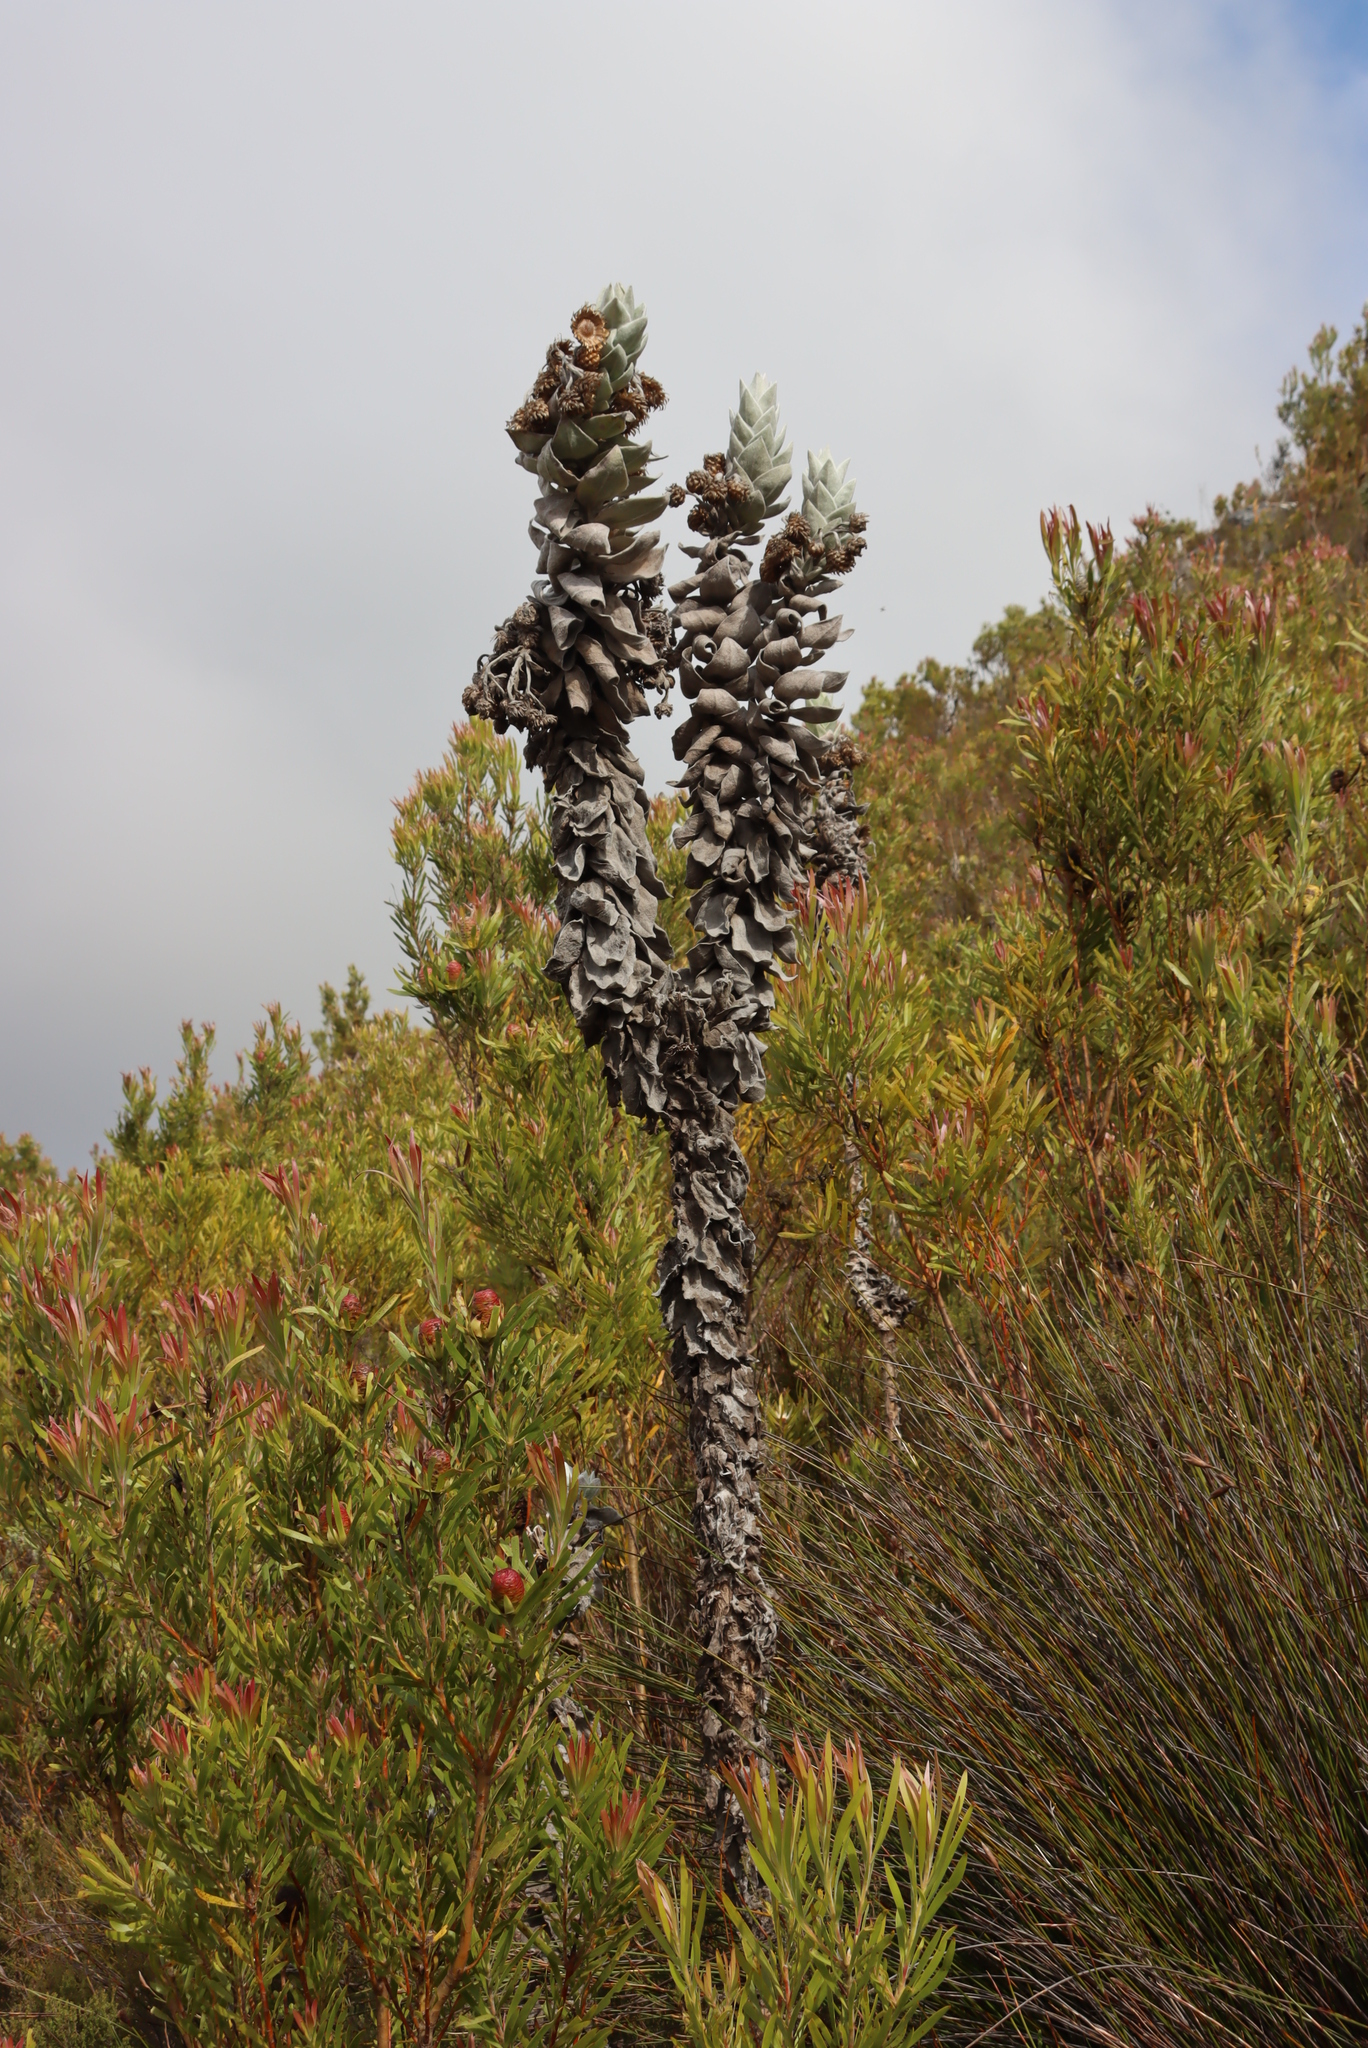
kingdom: Plantae
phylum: Tracheophyta
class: Magnoliopsida
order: Asterales
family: Asteraceae
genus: Syncarpha
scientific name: Syncarpha eximia
